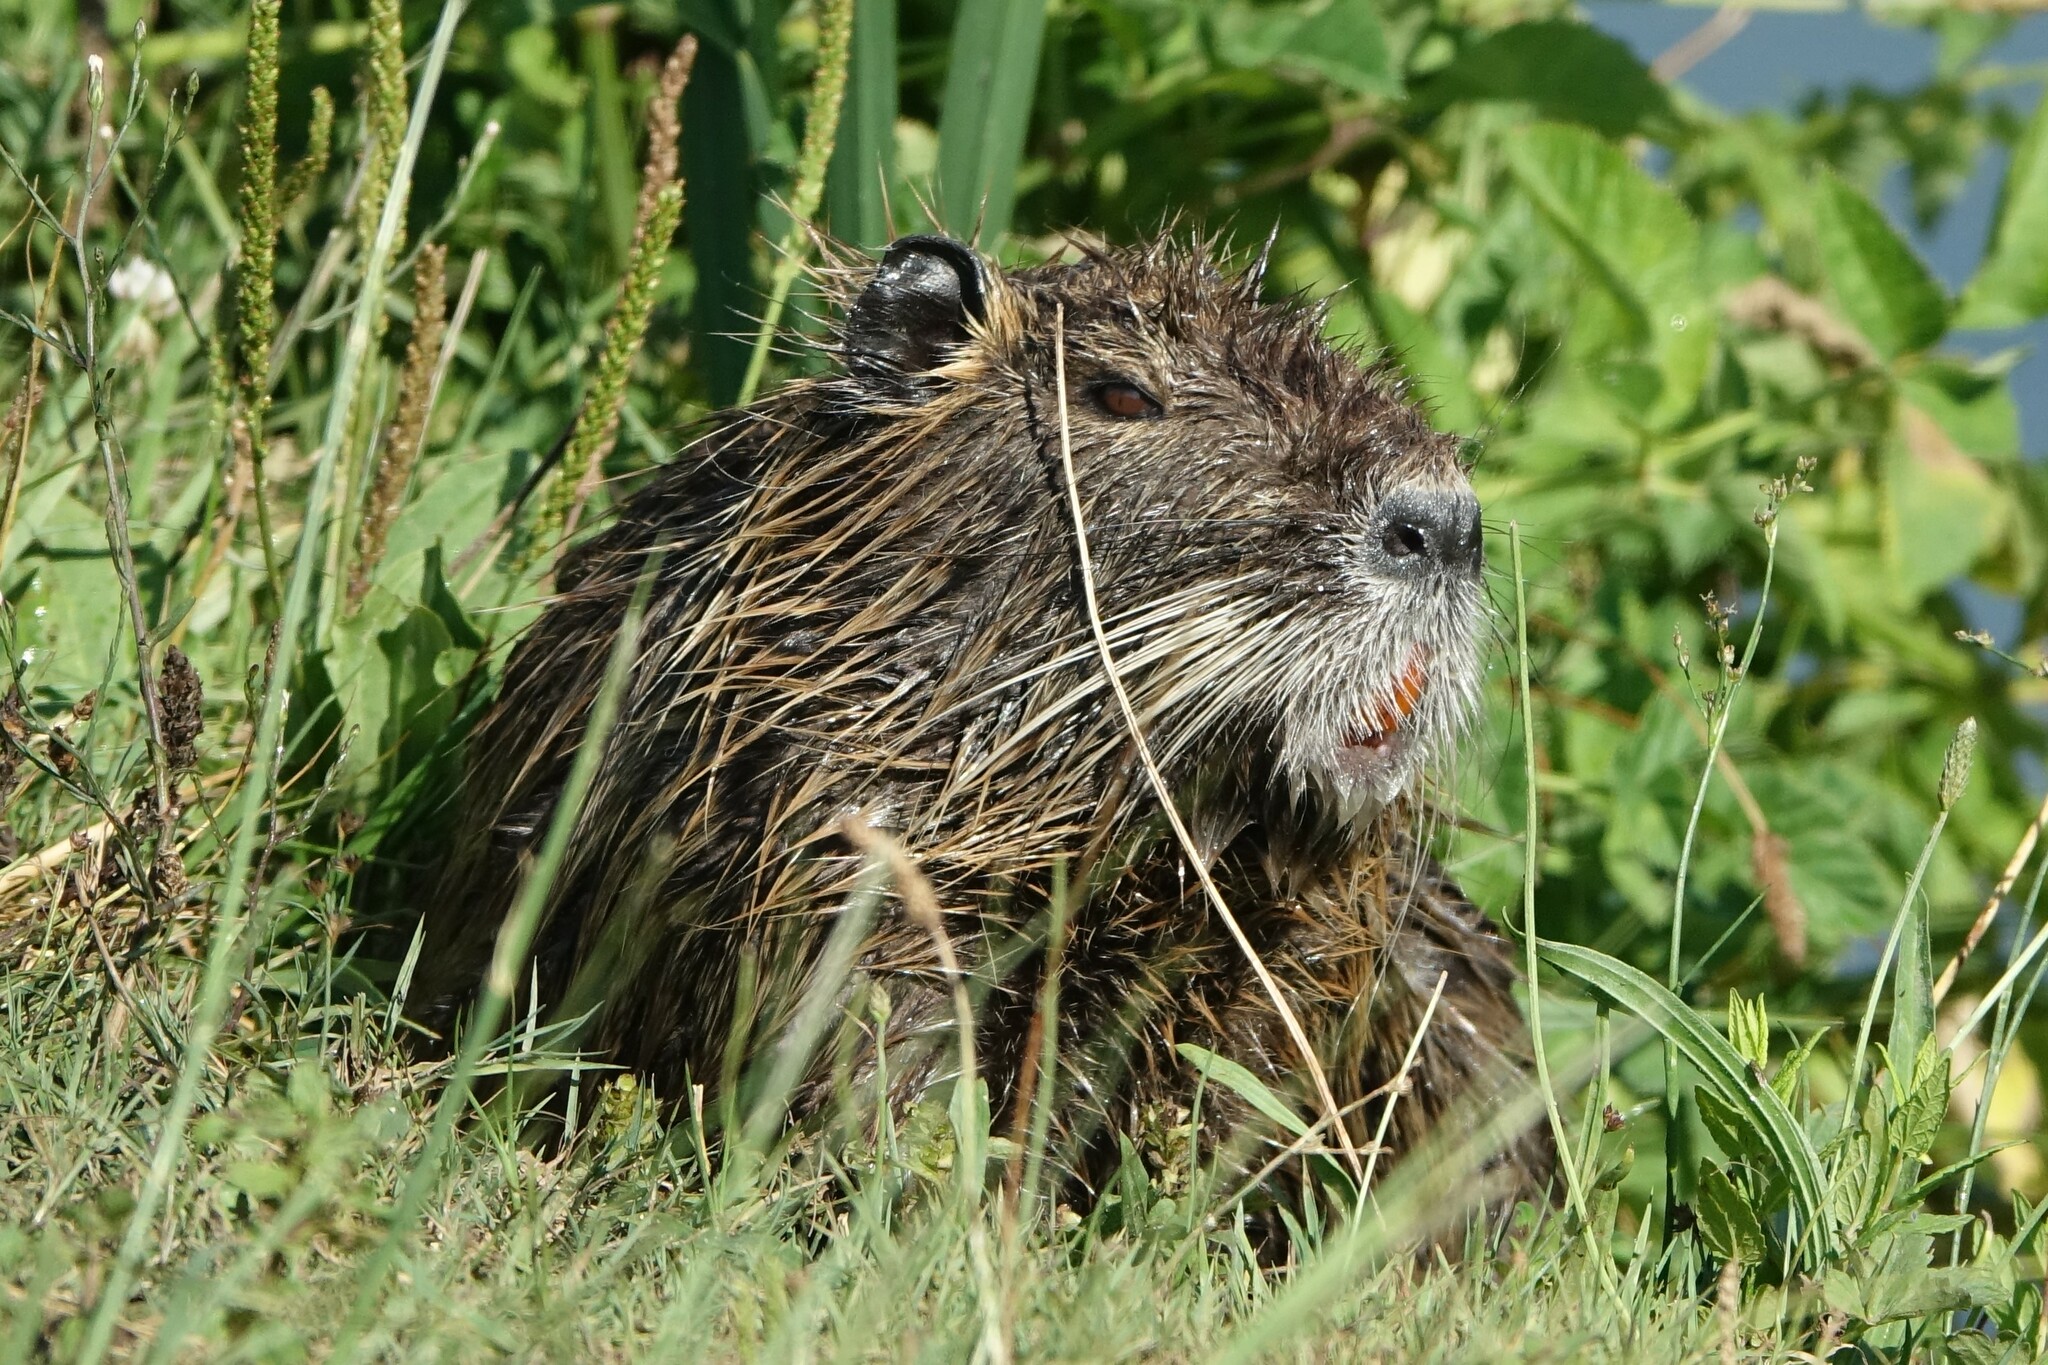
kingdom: Animalia
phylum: Chordata
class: Mammalia
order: Rodentia
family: Myocastoridae
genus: Myocastor
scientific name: Myocastor coypus
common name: Coypu
